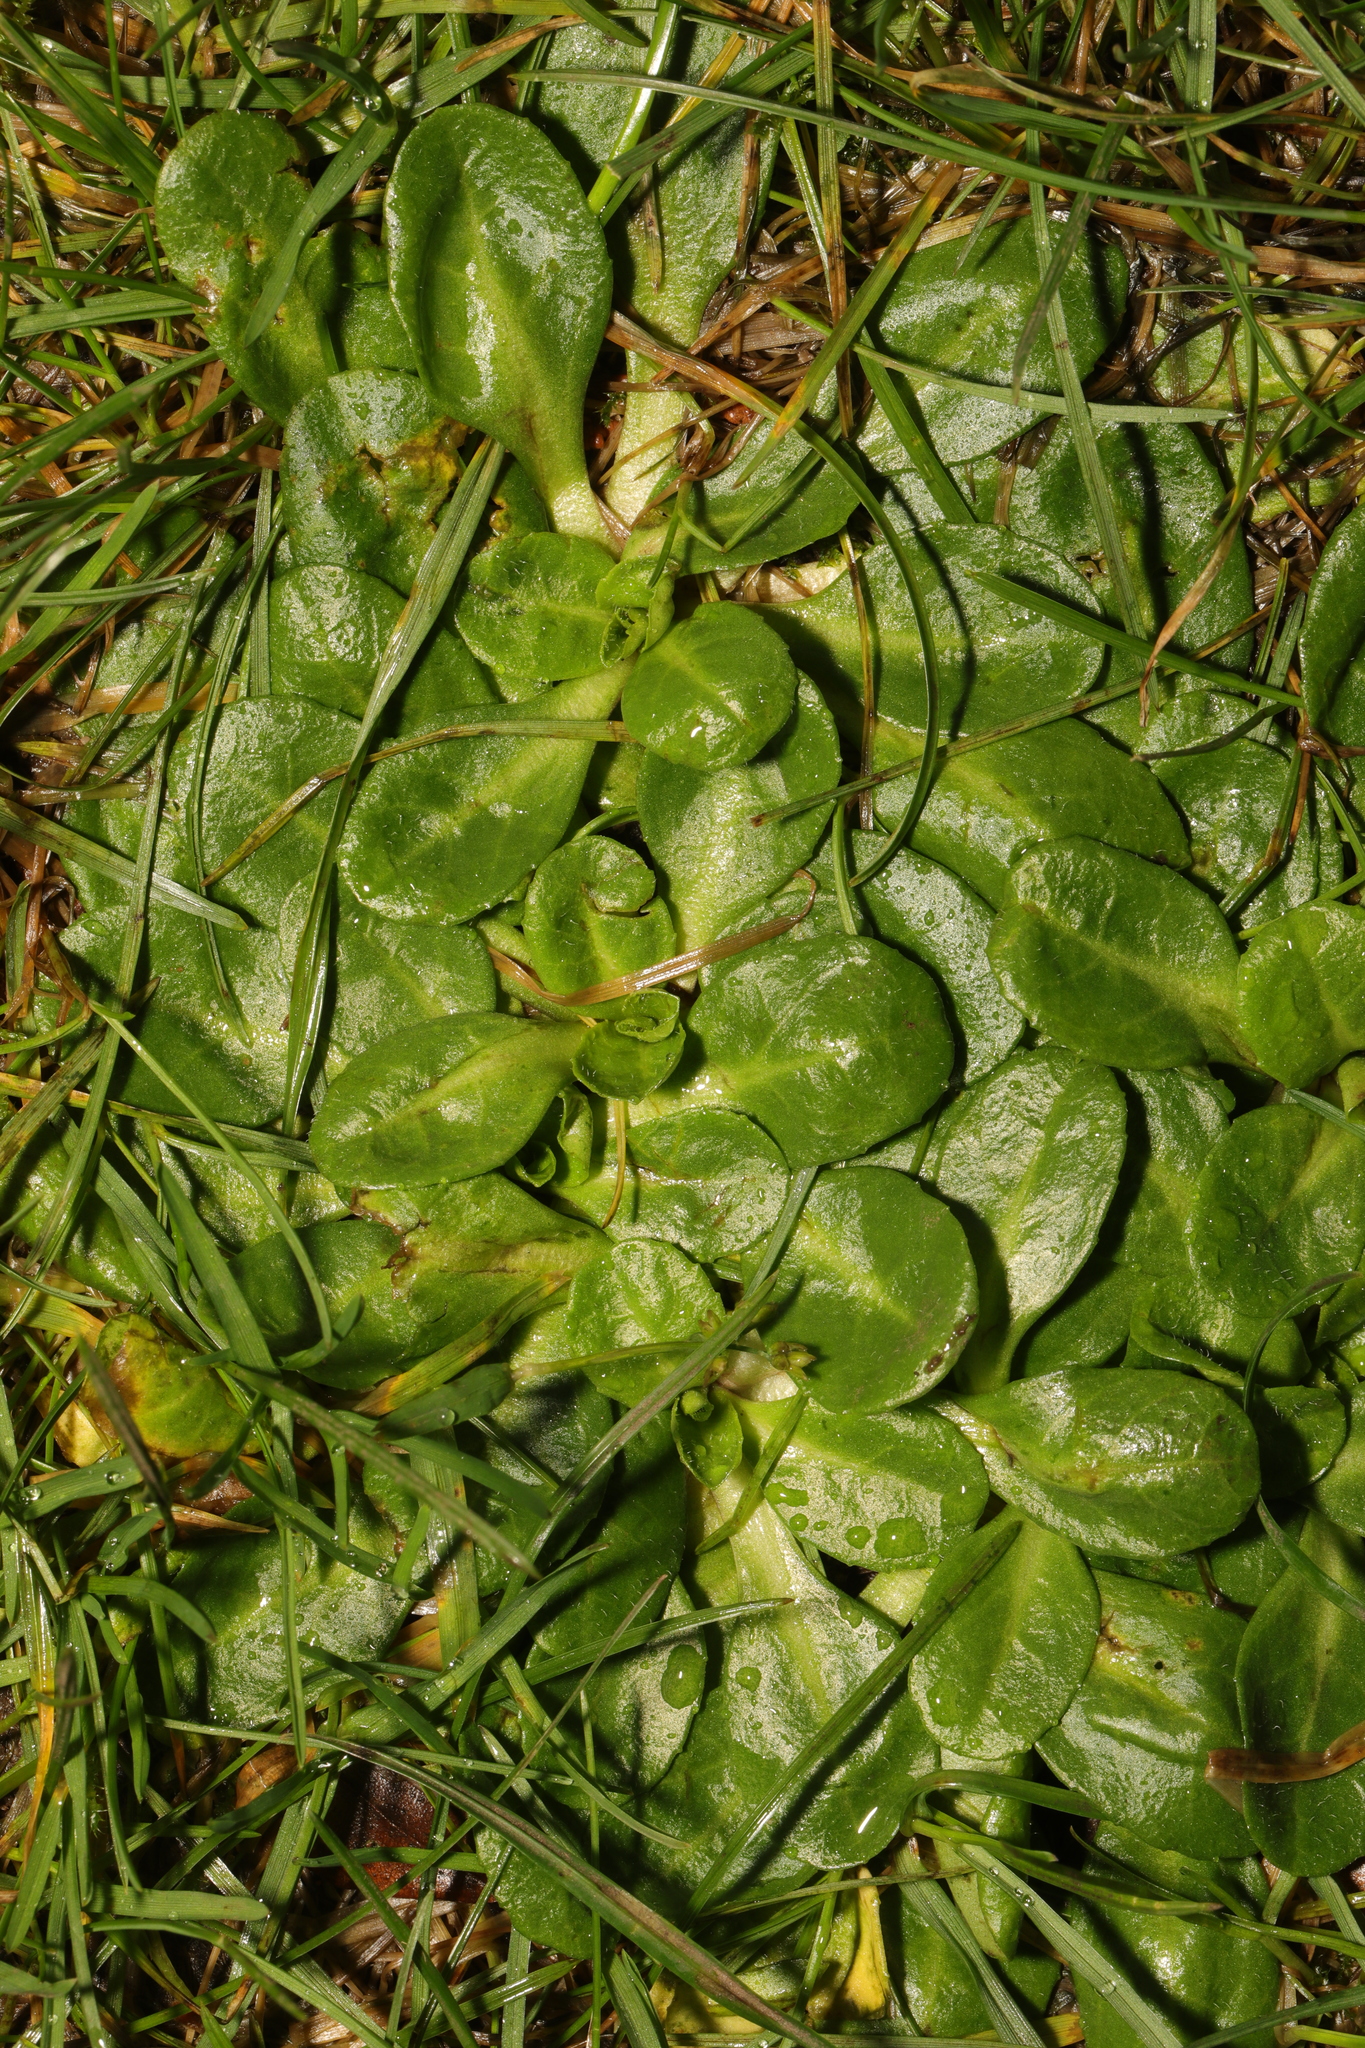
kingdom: Plantae
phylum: Tracheophyta
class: Magnoliopsida
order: Asterales
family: Asteraceae
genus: Bellis
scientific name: Bellis perennis
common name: Lawndaisy
